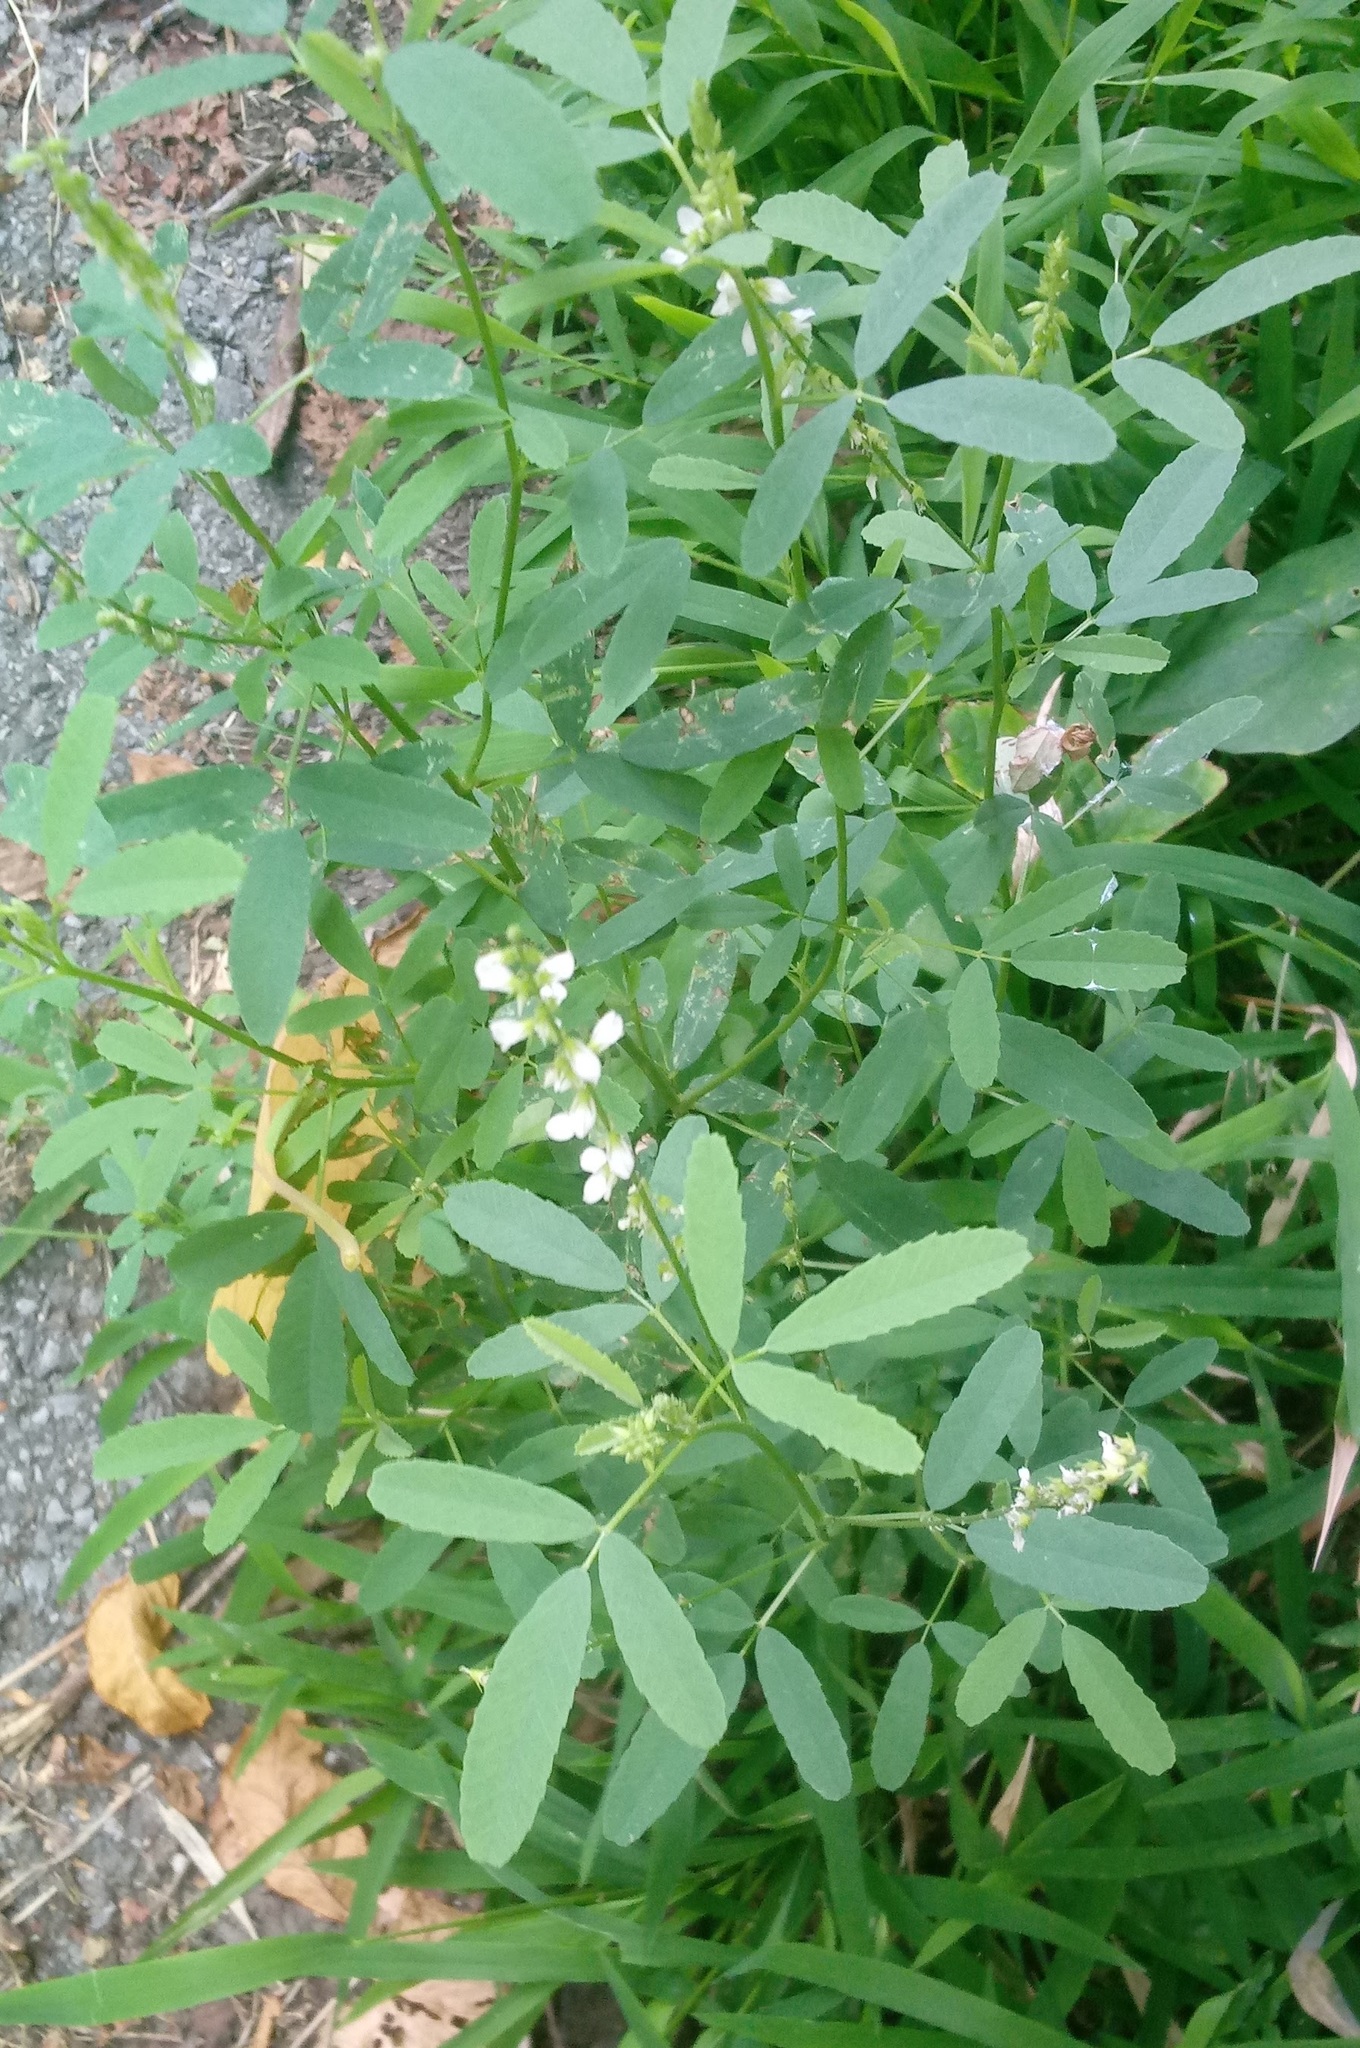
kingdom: Plantae
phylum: Tracheophyta
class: Magnoliopsida
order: Fabales
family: Fabaceae
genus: Melilotus
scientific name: Melilotus albus
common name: White melilot
